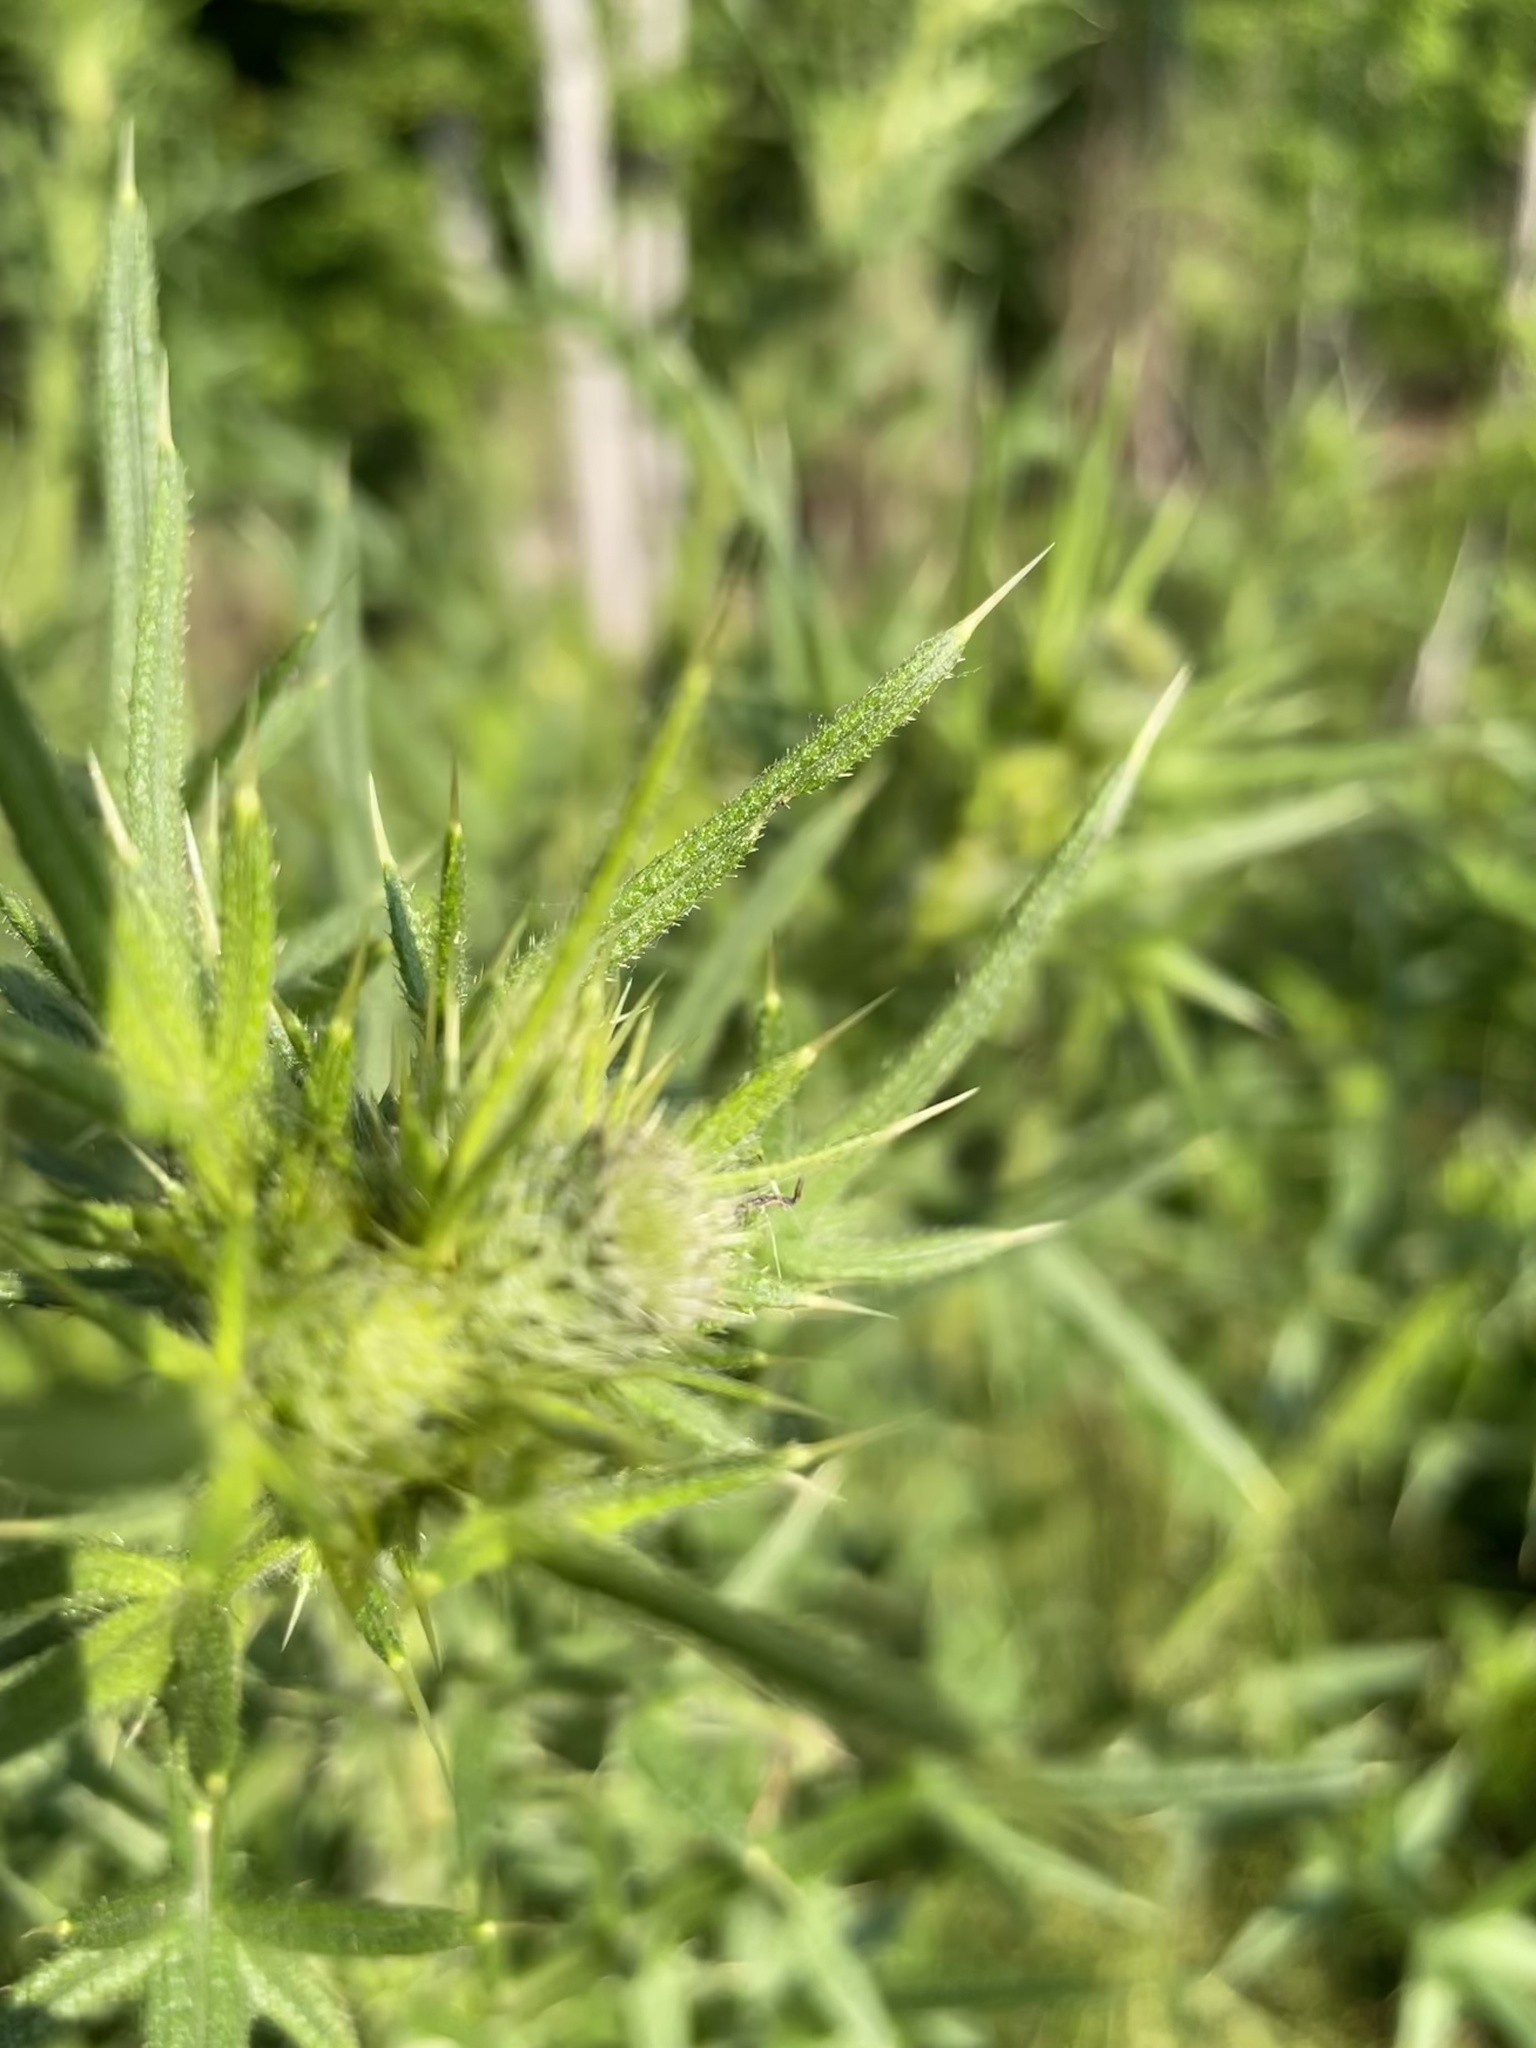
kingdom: Plantae
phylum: Tracheophyta
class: Magnoliopsida
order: Asterales
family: Asteraceae
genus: Cirsium
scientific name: Cirsium vulgare
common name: Bull thistle
